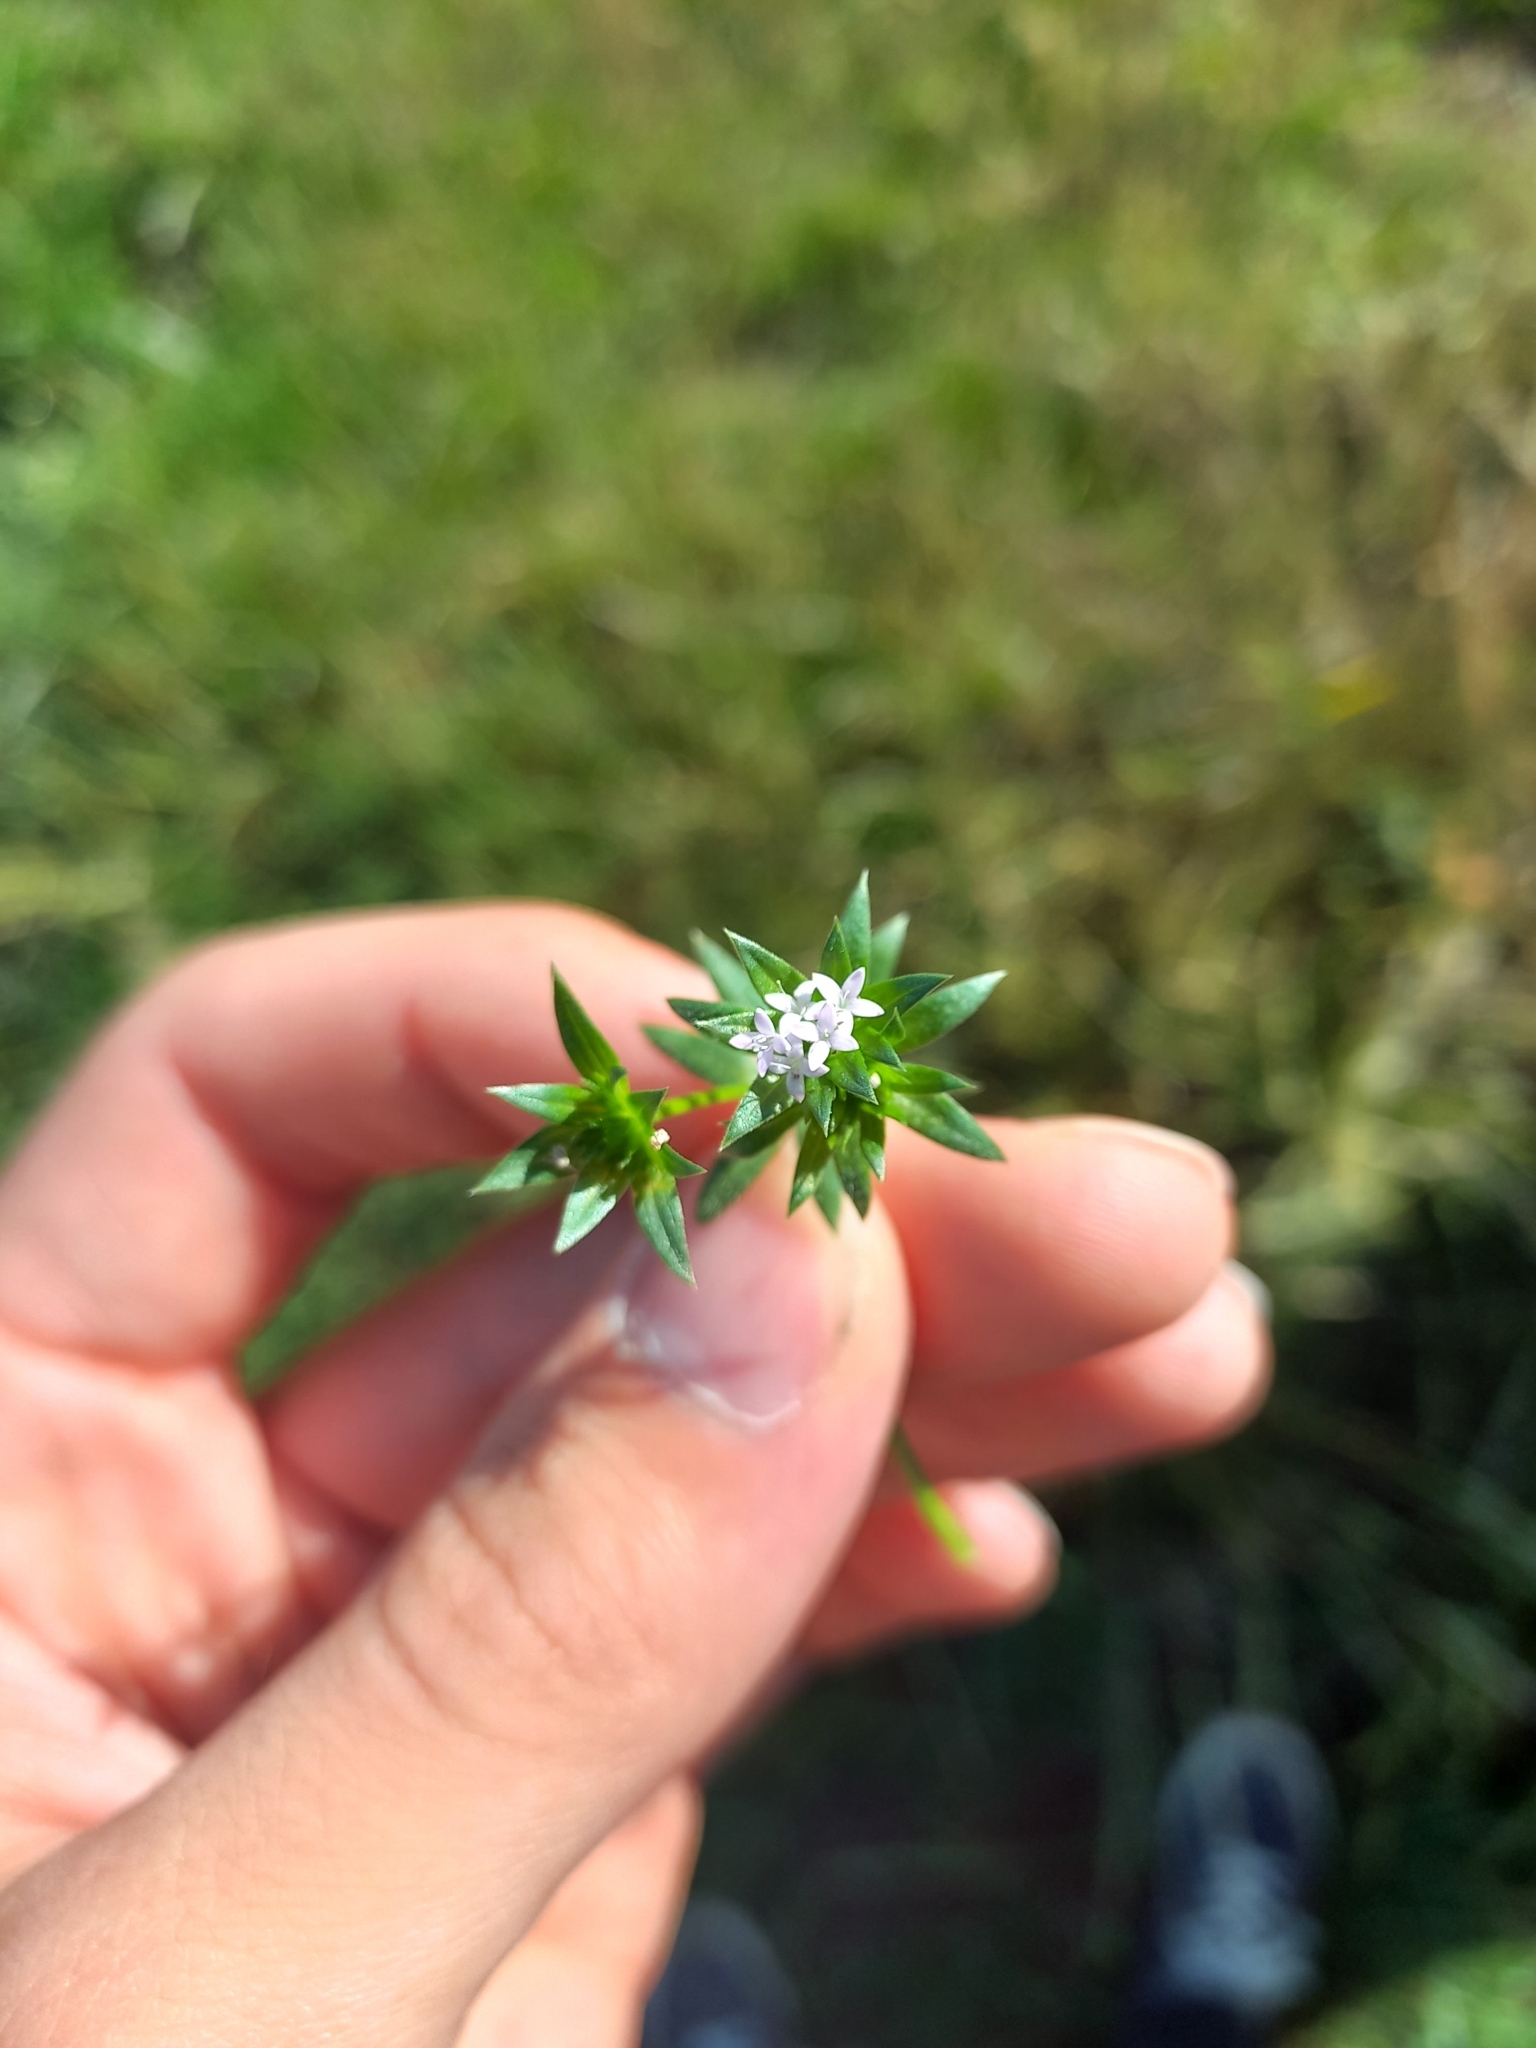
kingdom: Plantae
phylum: Tracheophyta
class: Magnoliopsida
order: Gentianales
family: Rubiaceae
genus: Sherardia
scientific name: Sherardia arvensis
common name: Field madder
